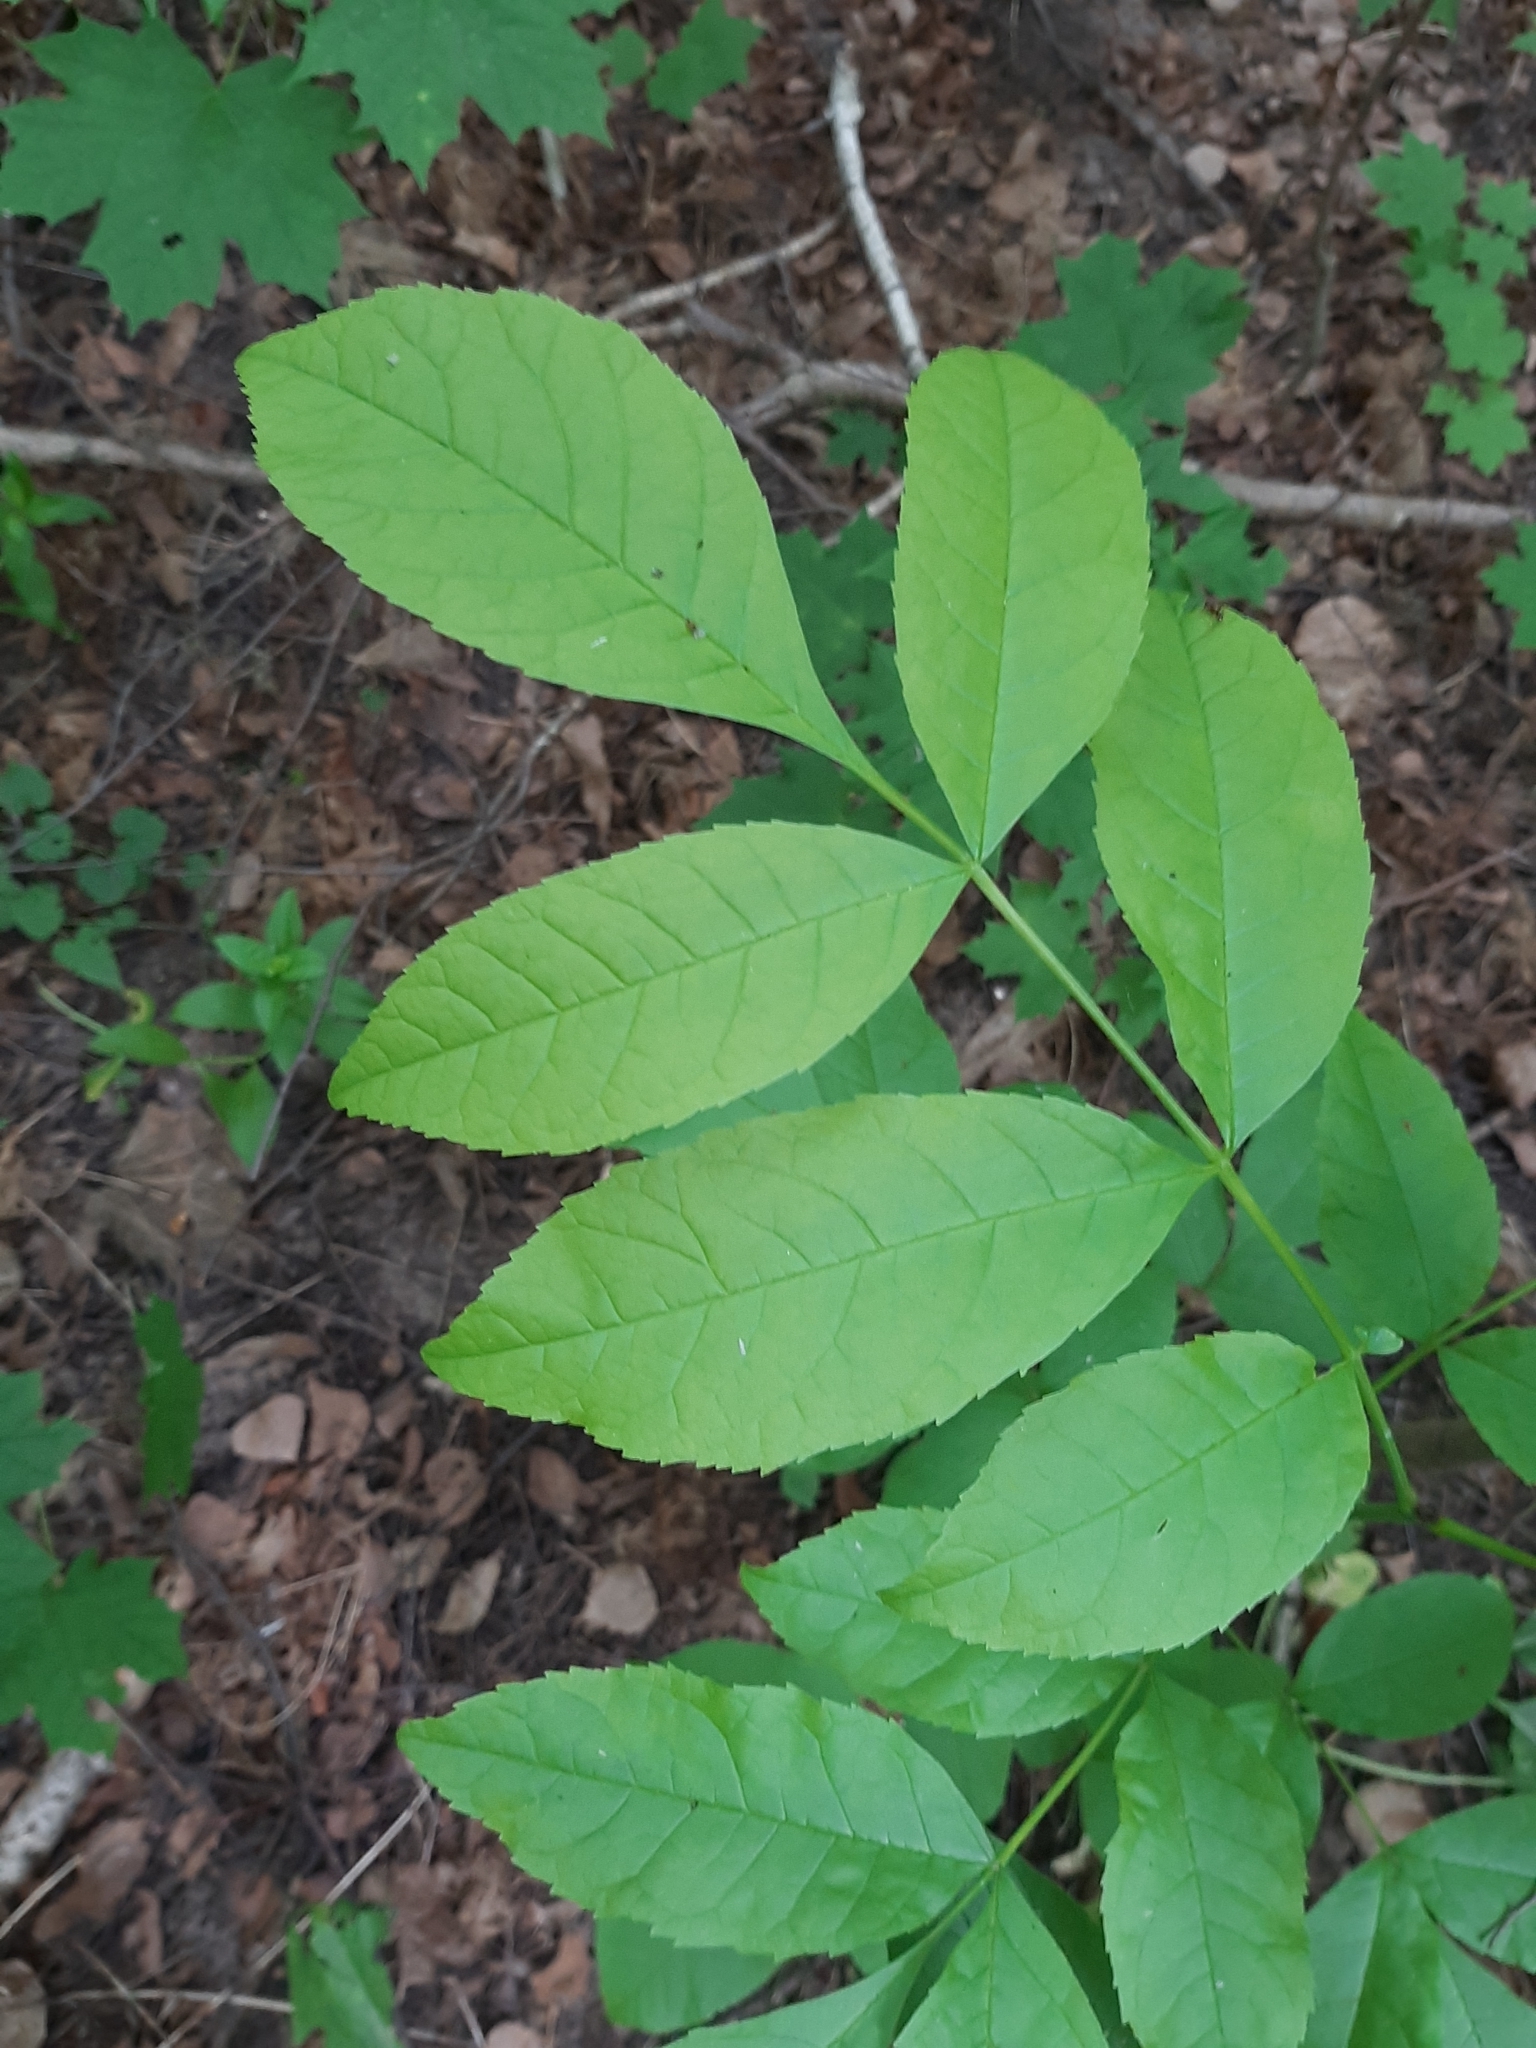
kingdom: Plantae
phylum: Tracheophyta
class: Magnoliopsida
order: Lamiales
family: Oleaceae
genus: Fraxinus
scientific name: Fraxinus pennsylvanica
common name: Green ash
